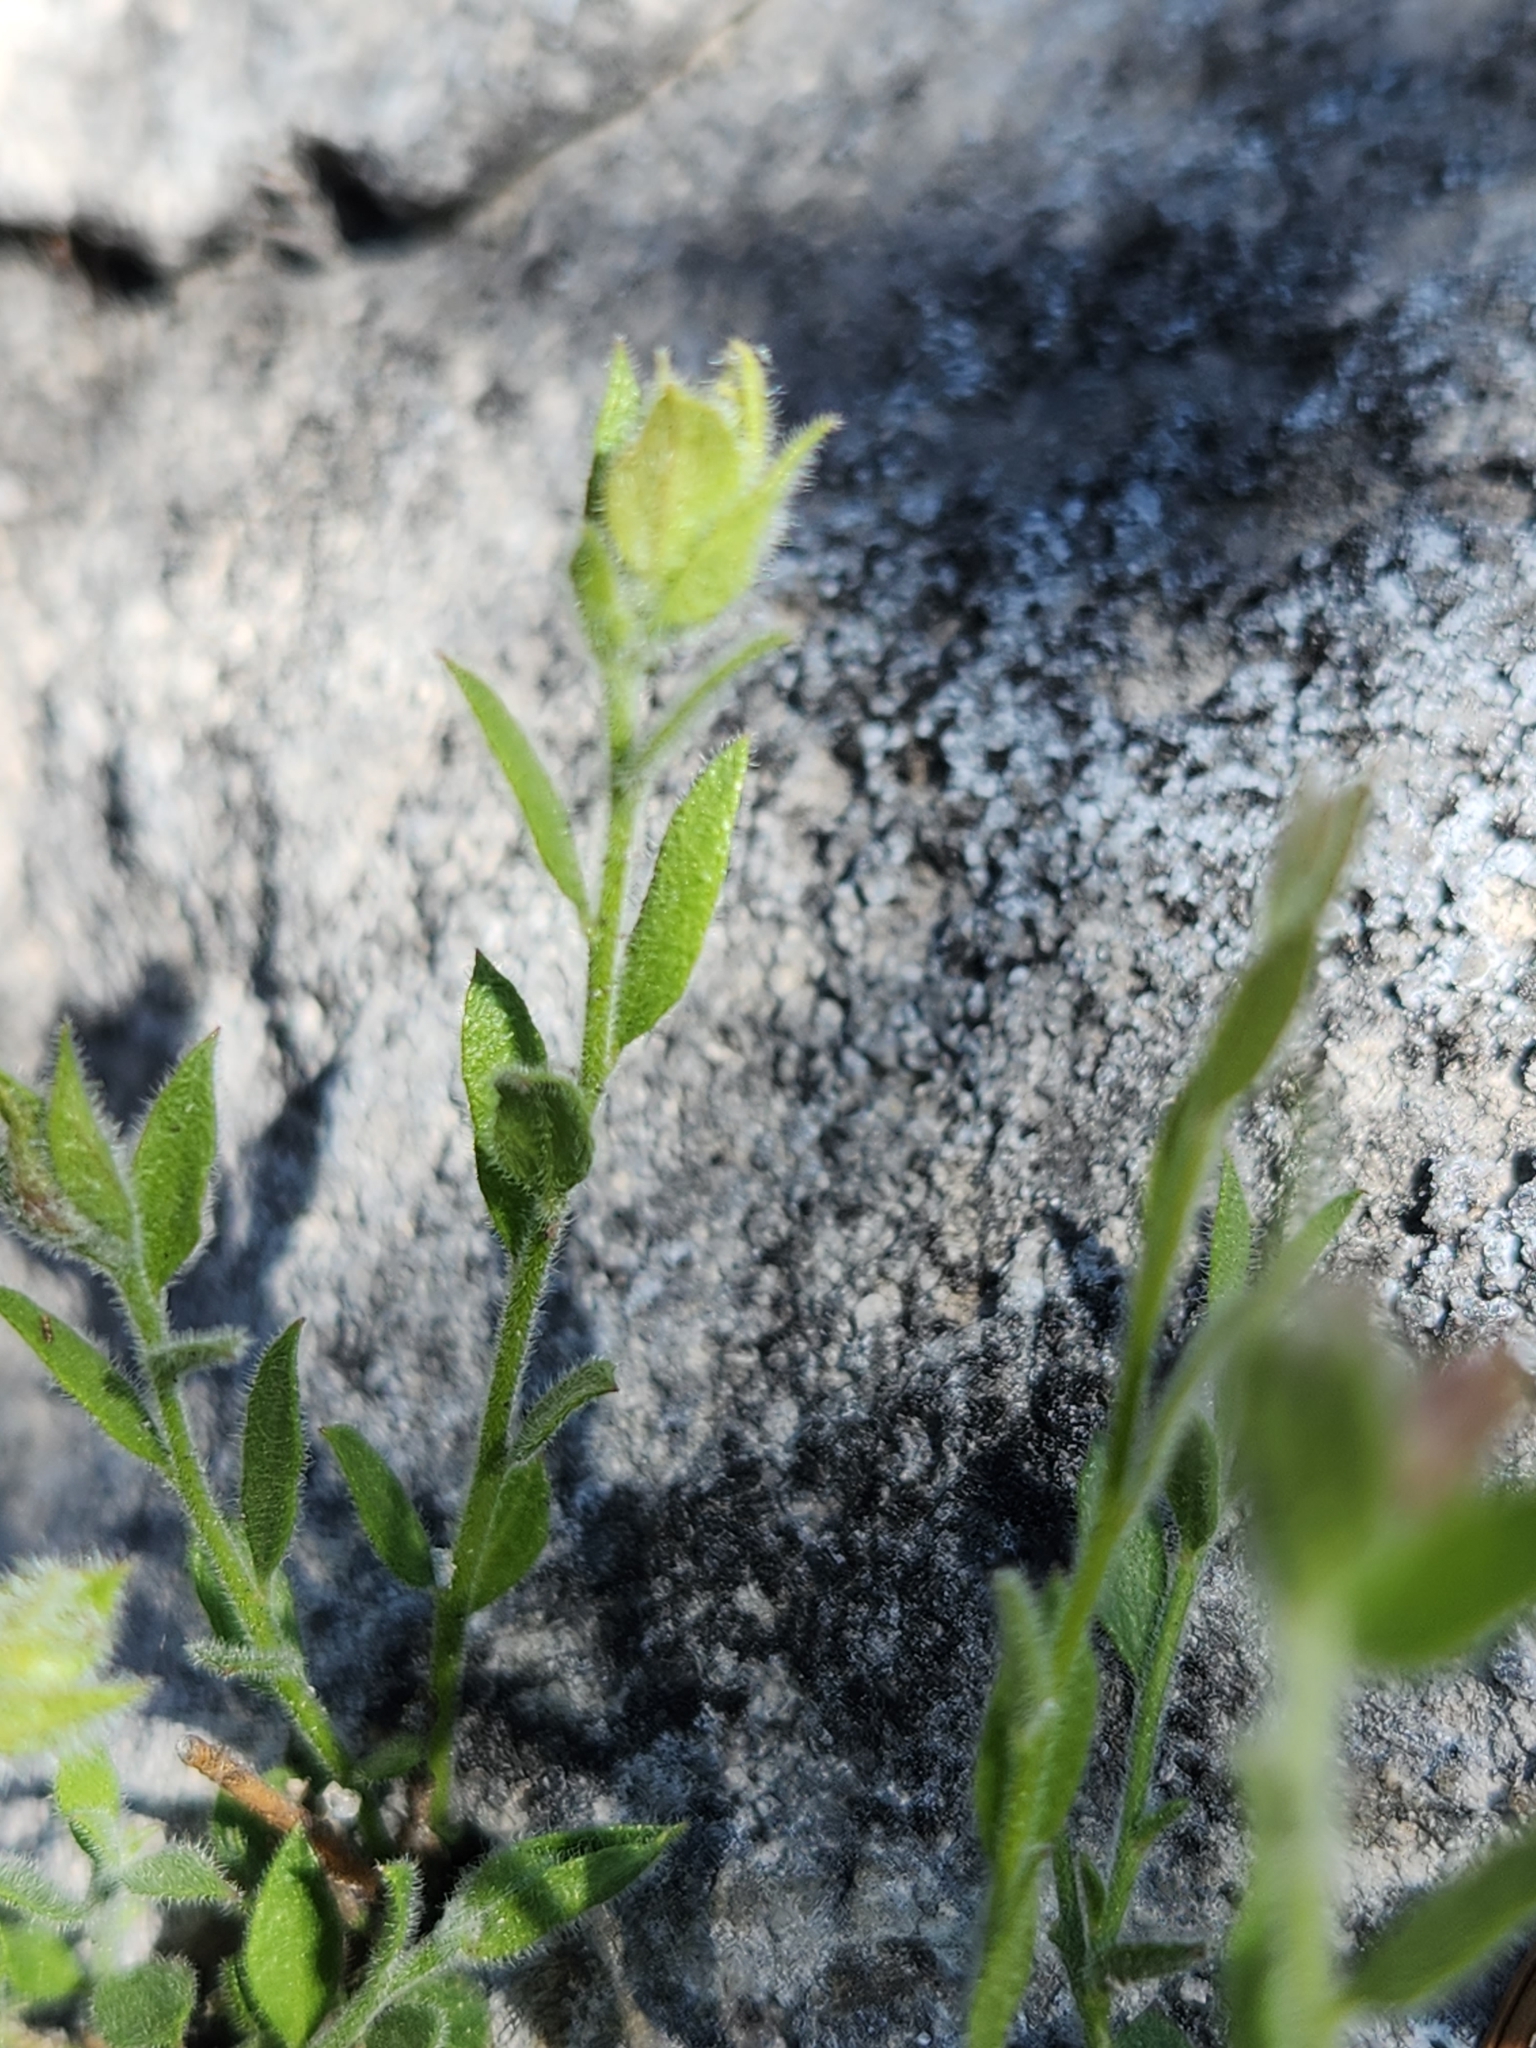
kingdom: Plantae
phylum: Tracheophyta
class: Magnoliopsida
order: Fabales
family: Polygalaceae
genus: Rhinotropis
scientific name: Rhinotropis lindheimeri
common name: Shrubby milkwort
